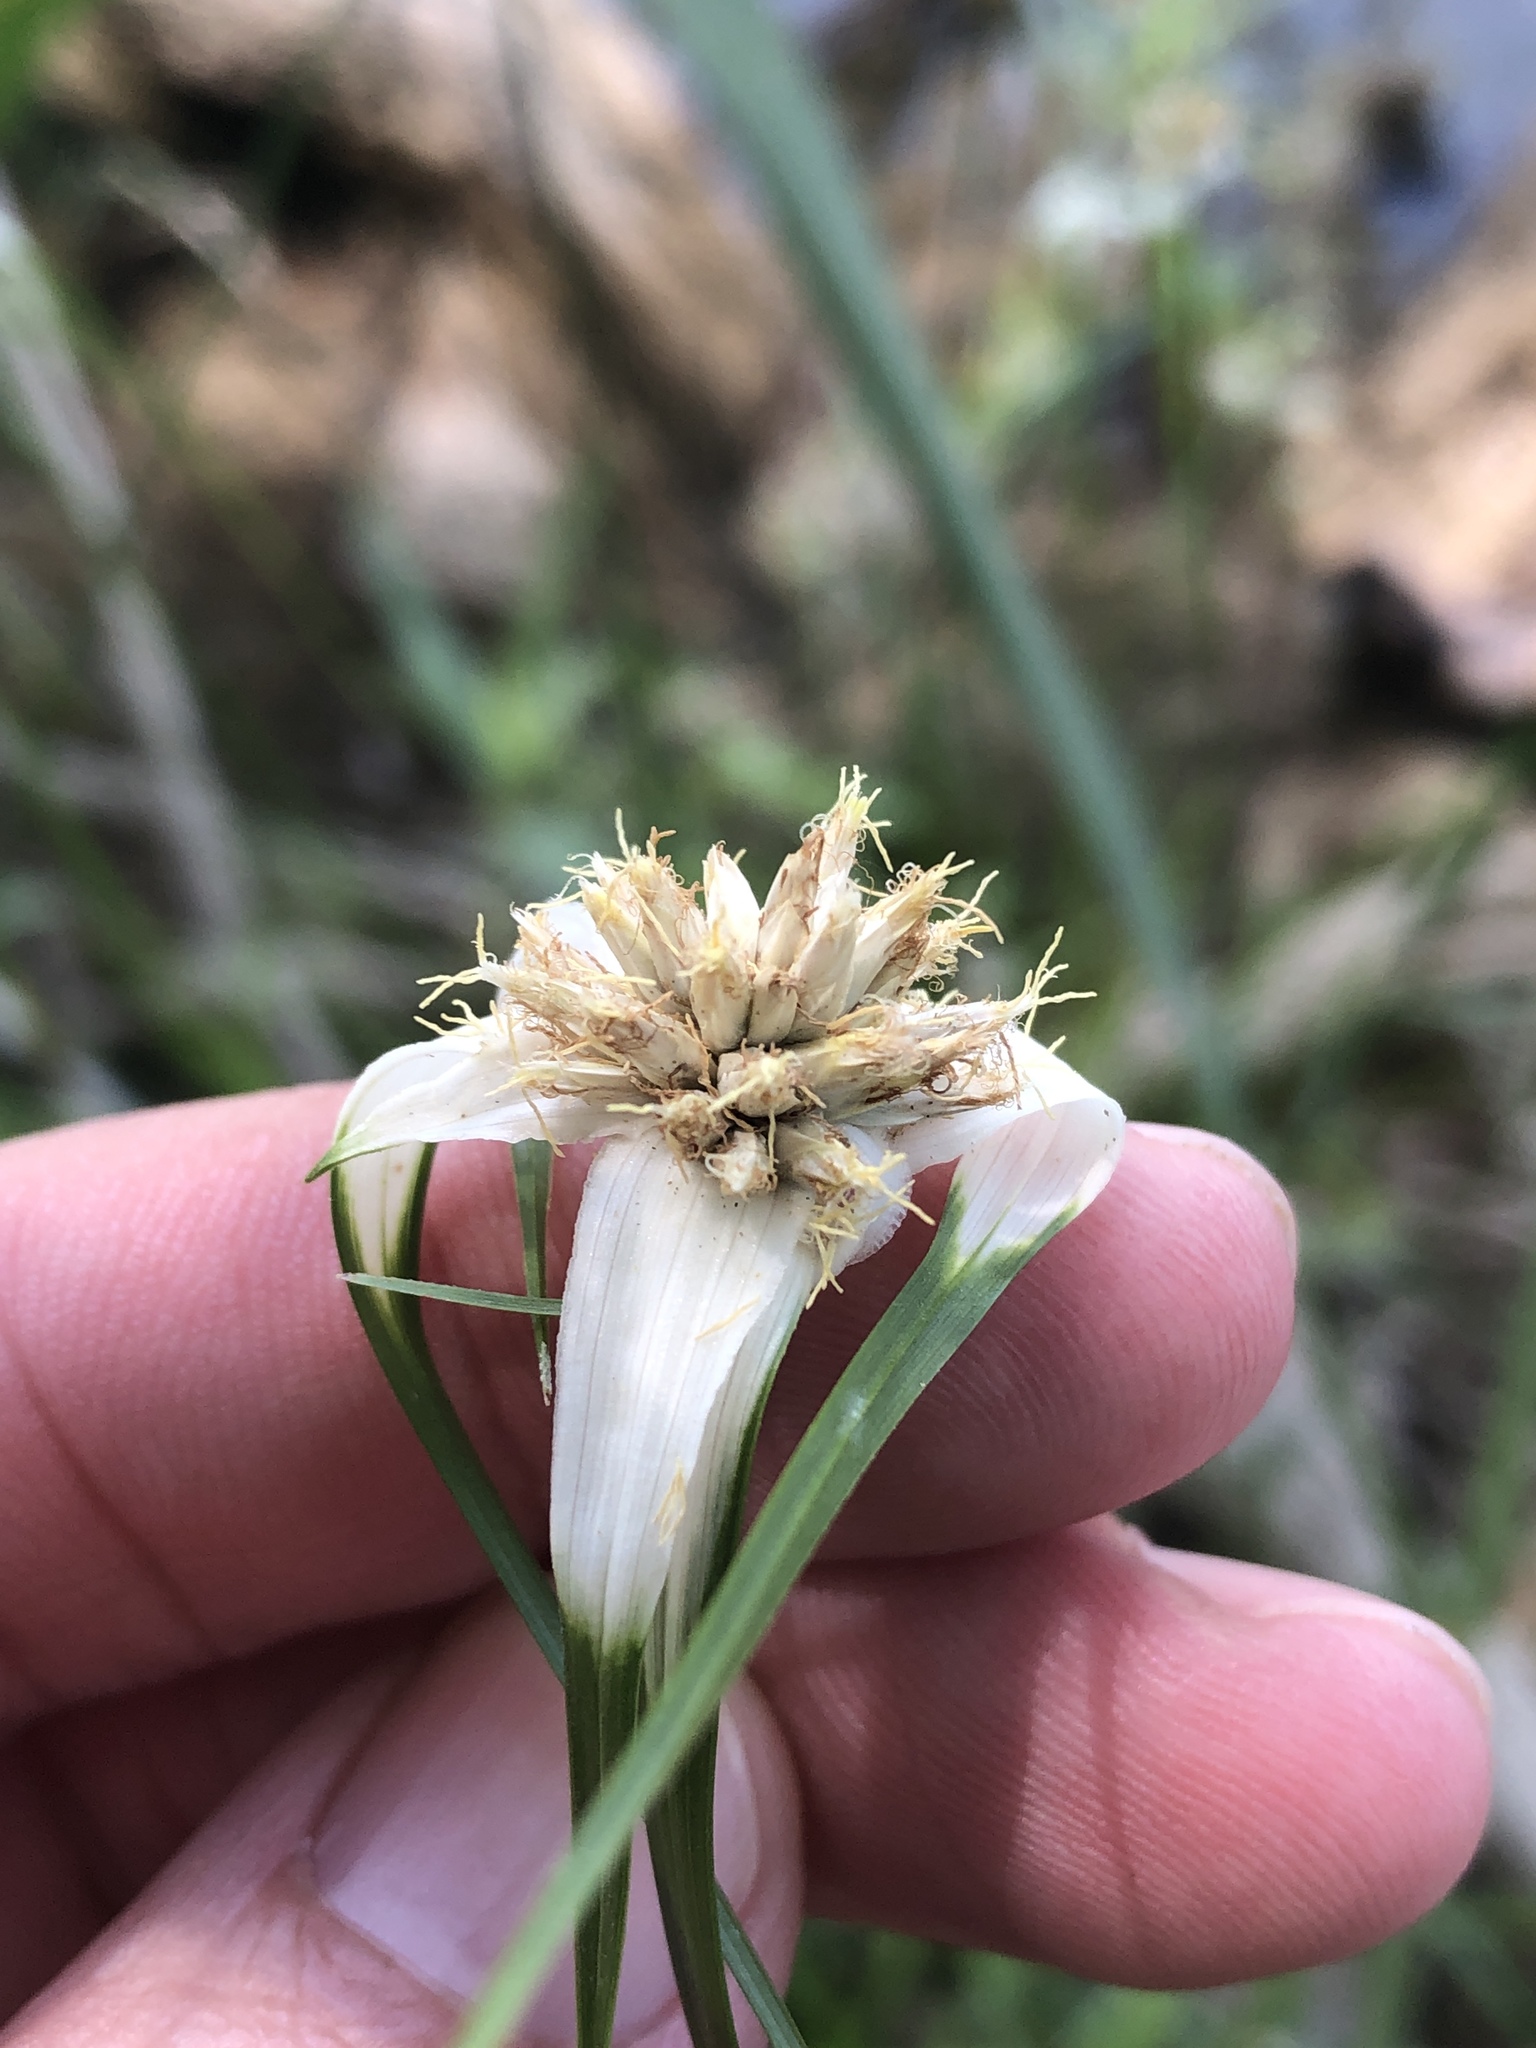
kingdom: Plantae
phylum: Tracheophyta
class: Liliopsida
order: Poales
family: Cyperaceae
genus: Rhynchospora
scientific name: Rhynchospora colorata
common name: Star sedge
